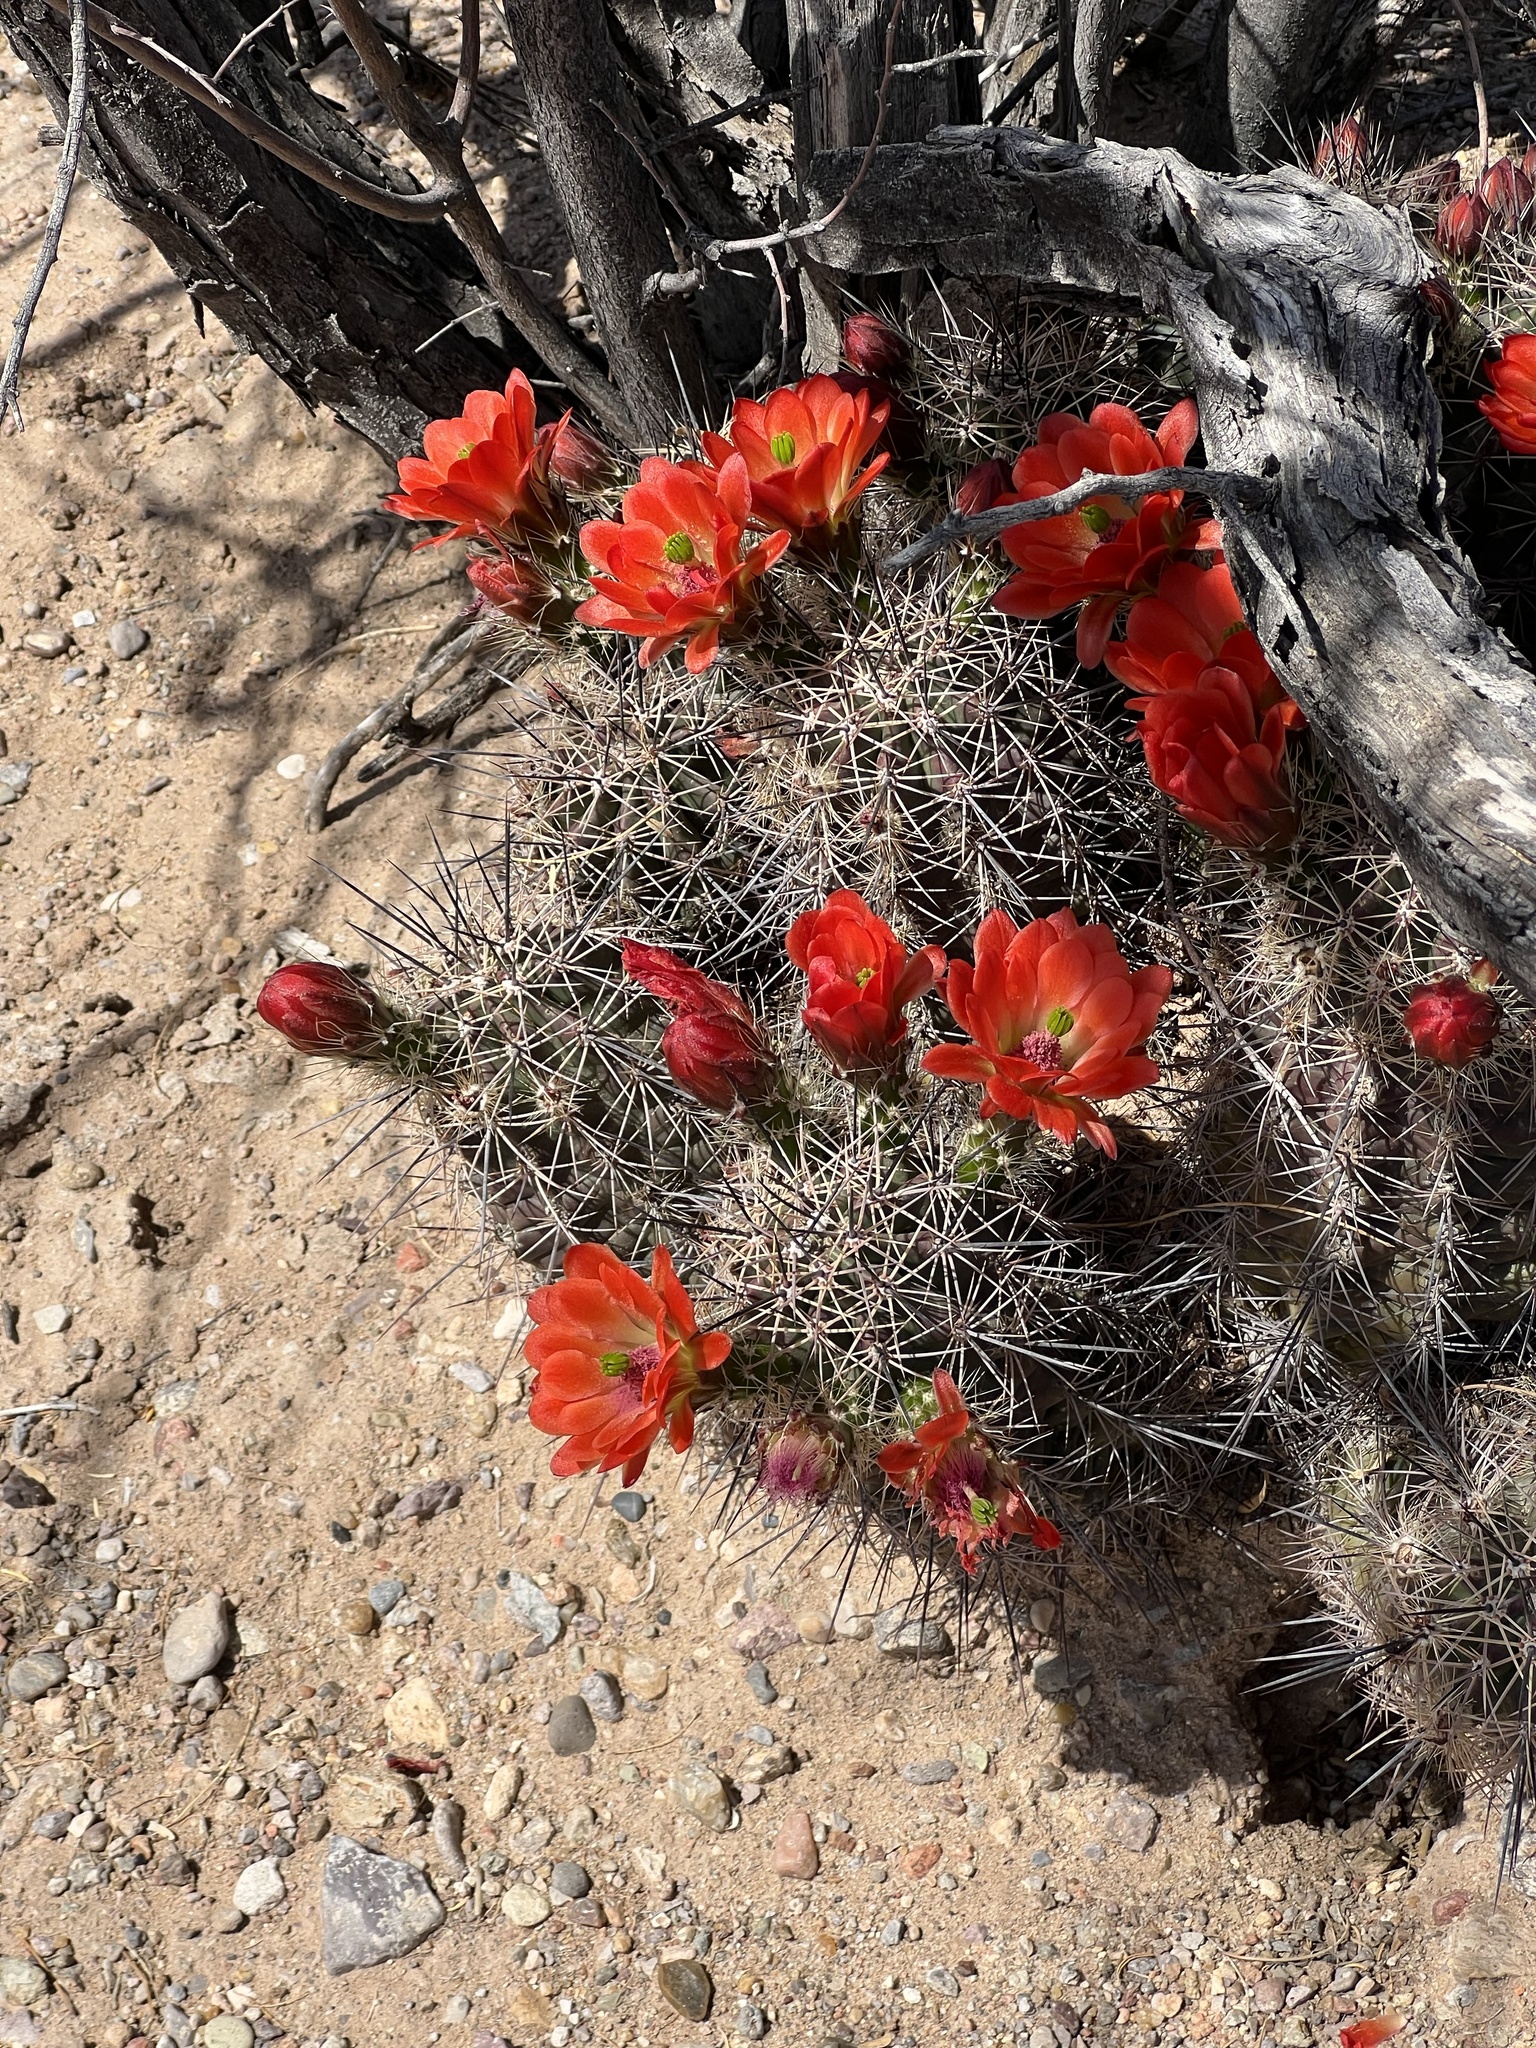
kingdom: Plantae
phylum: Tracheophyta
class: Magnoliopsida
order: Caryophyllales
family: Cactaceae
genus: Echinocereus
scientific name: Echinocereus coccineus
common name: Scarlet hedgehog cactus
